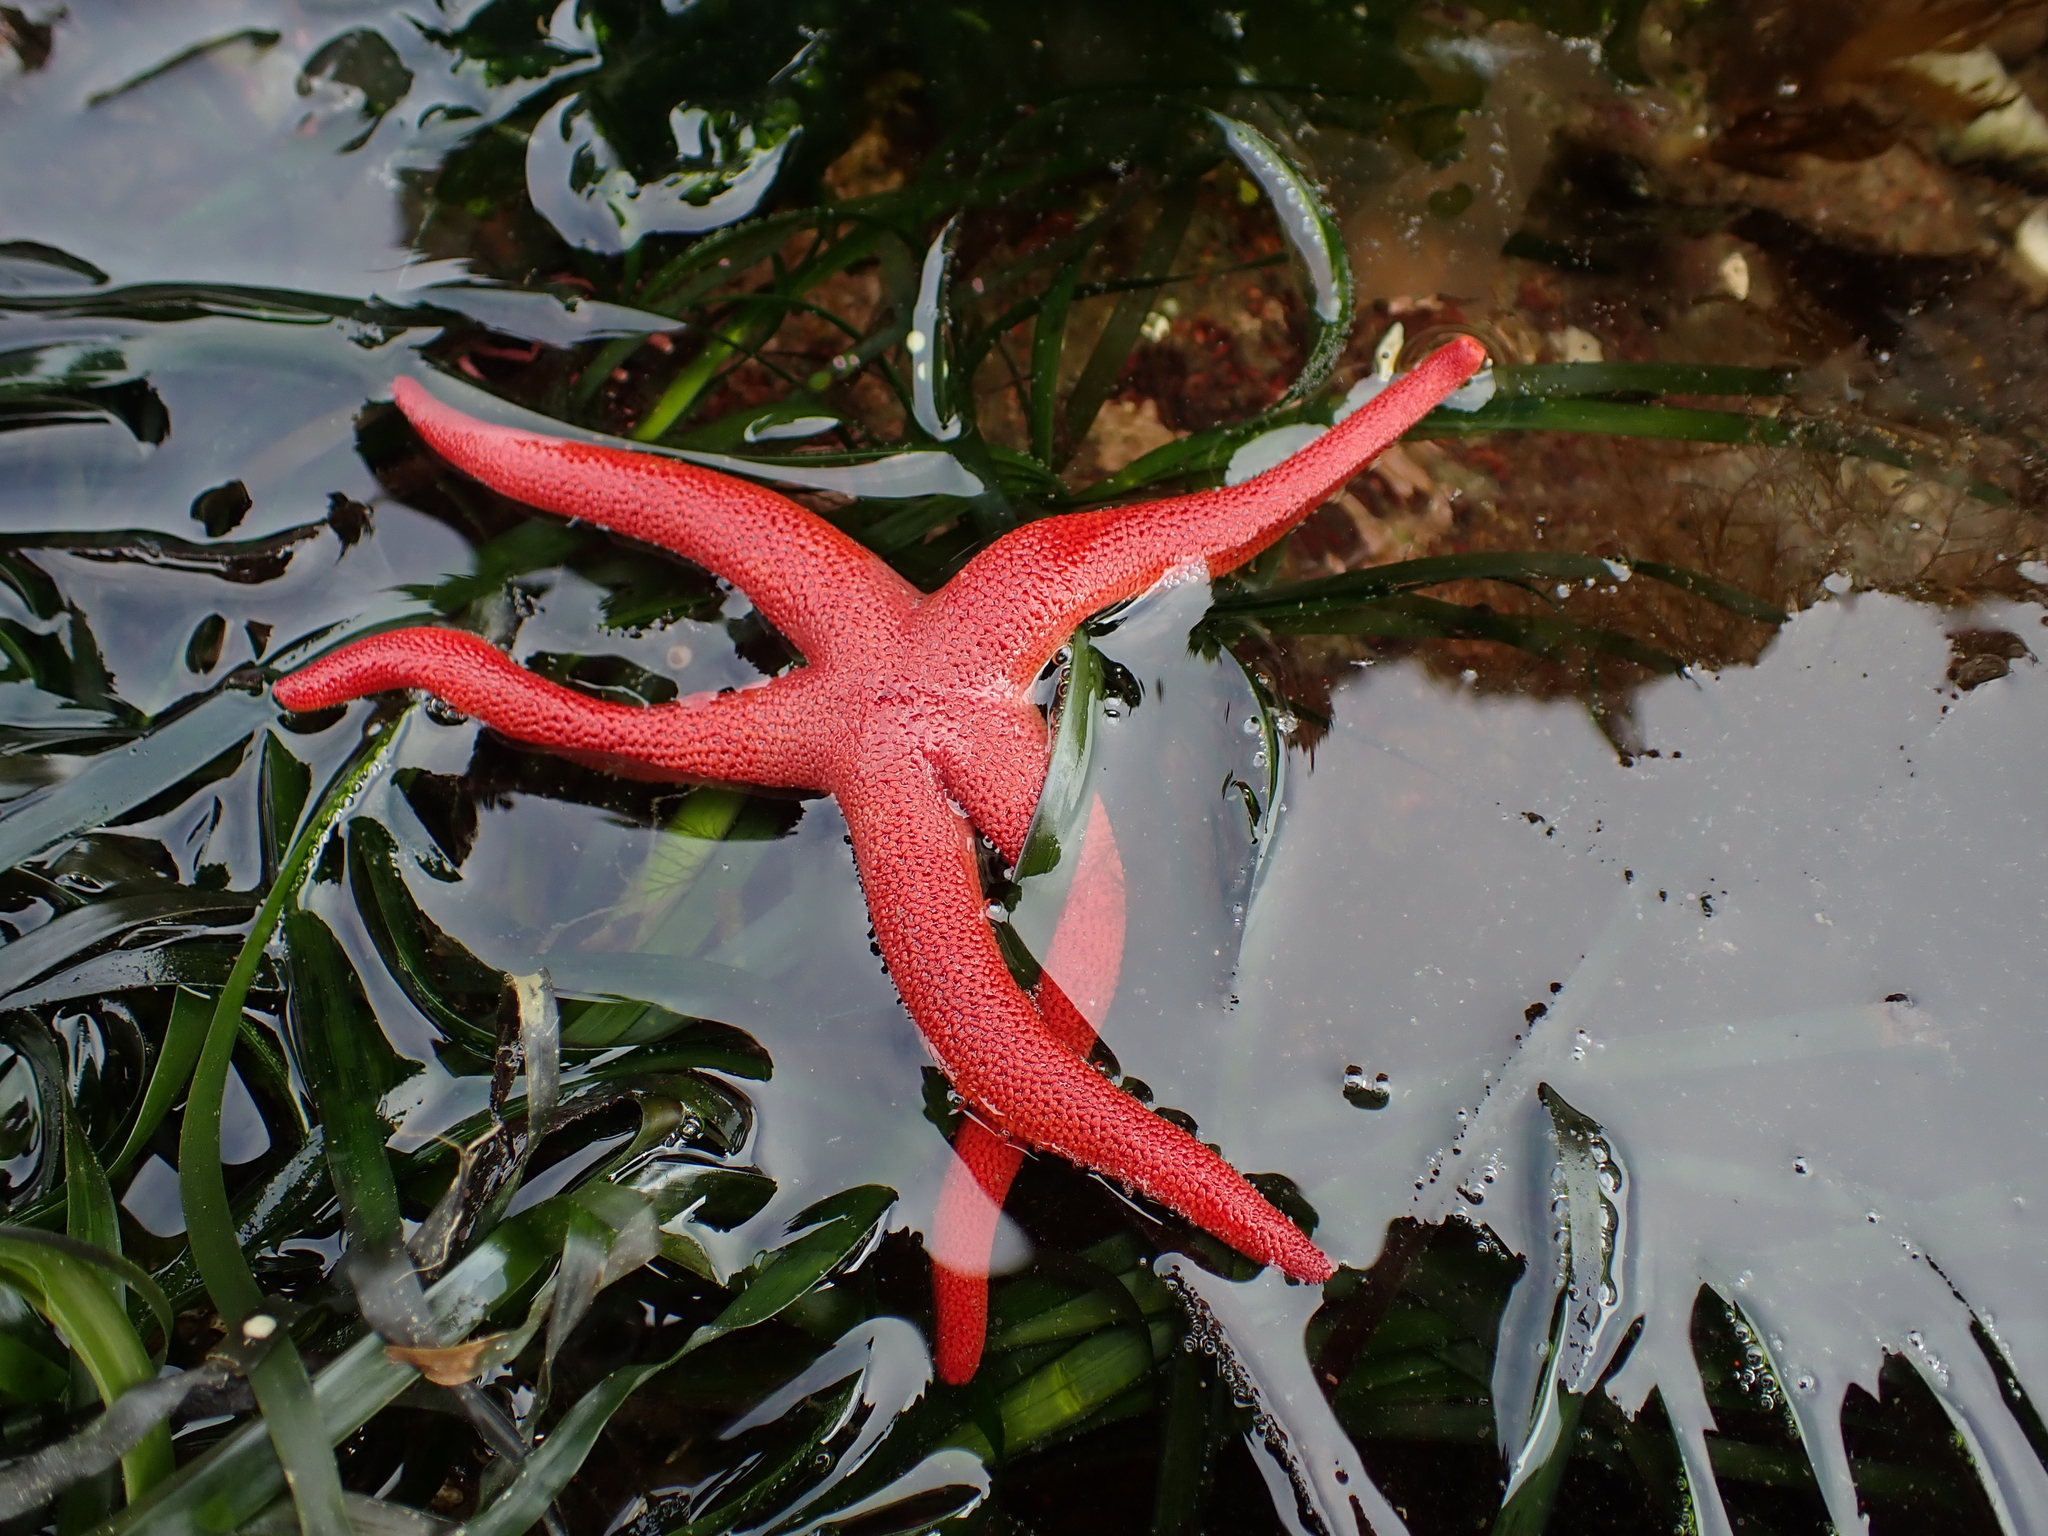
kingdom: Animalia
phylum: Echinodermata
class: Asteroidea
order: Spinulosida
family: Echinasteridae
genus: Henricia
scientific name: Henricia leviuscula
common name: Pacific blood star
